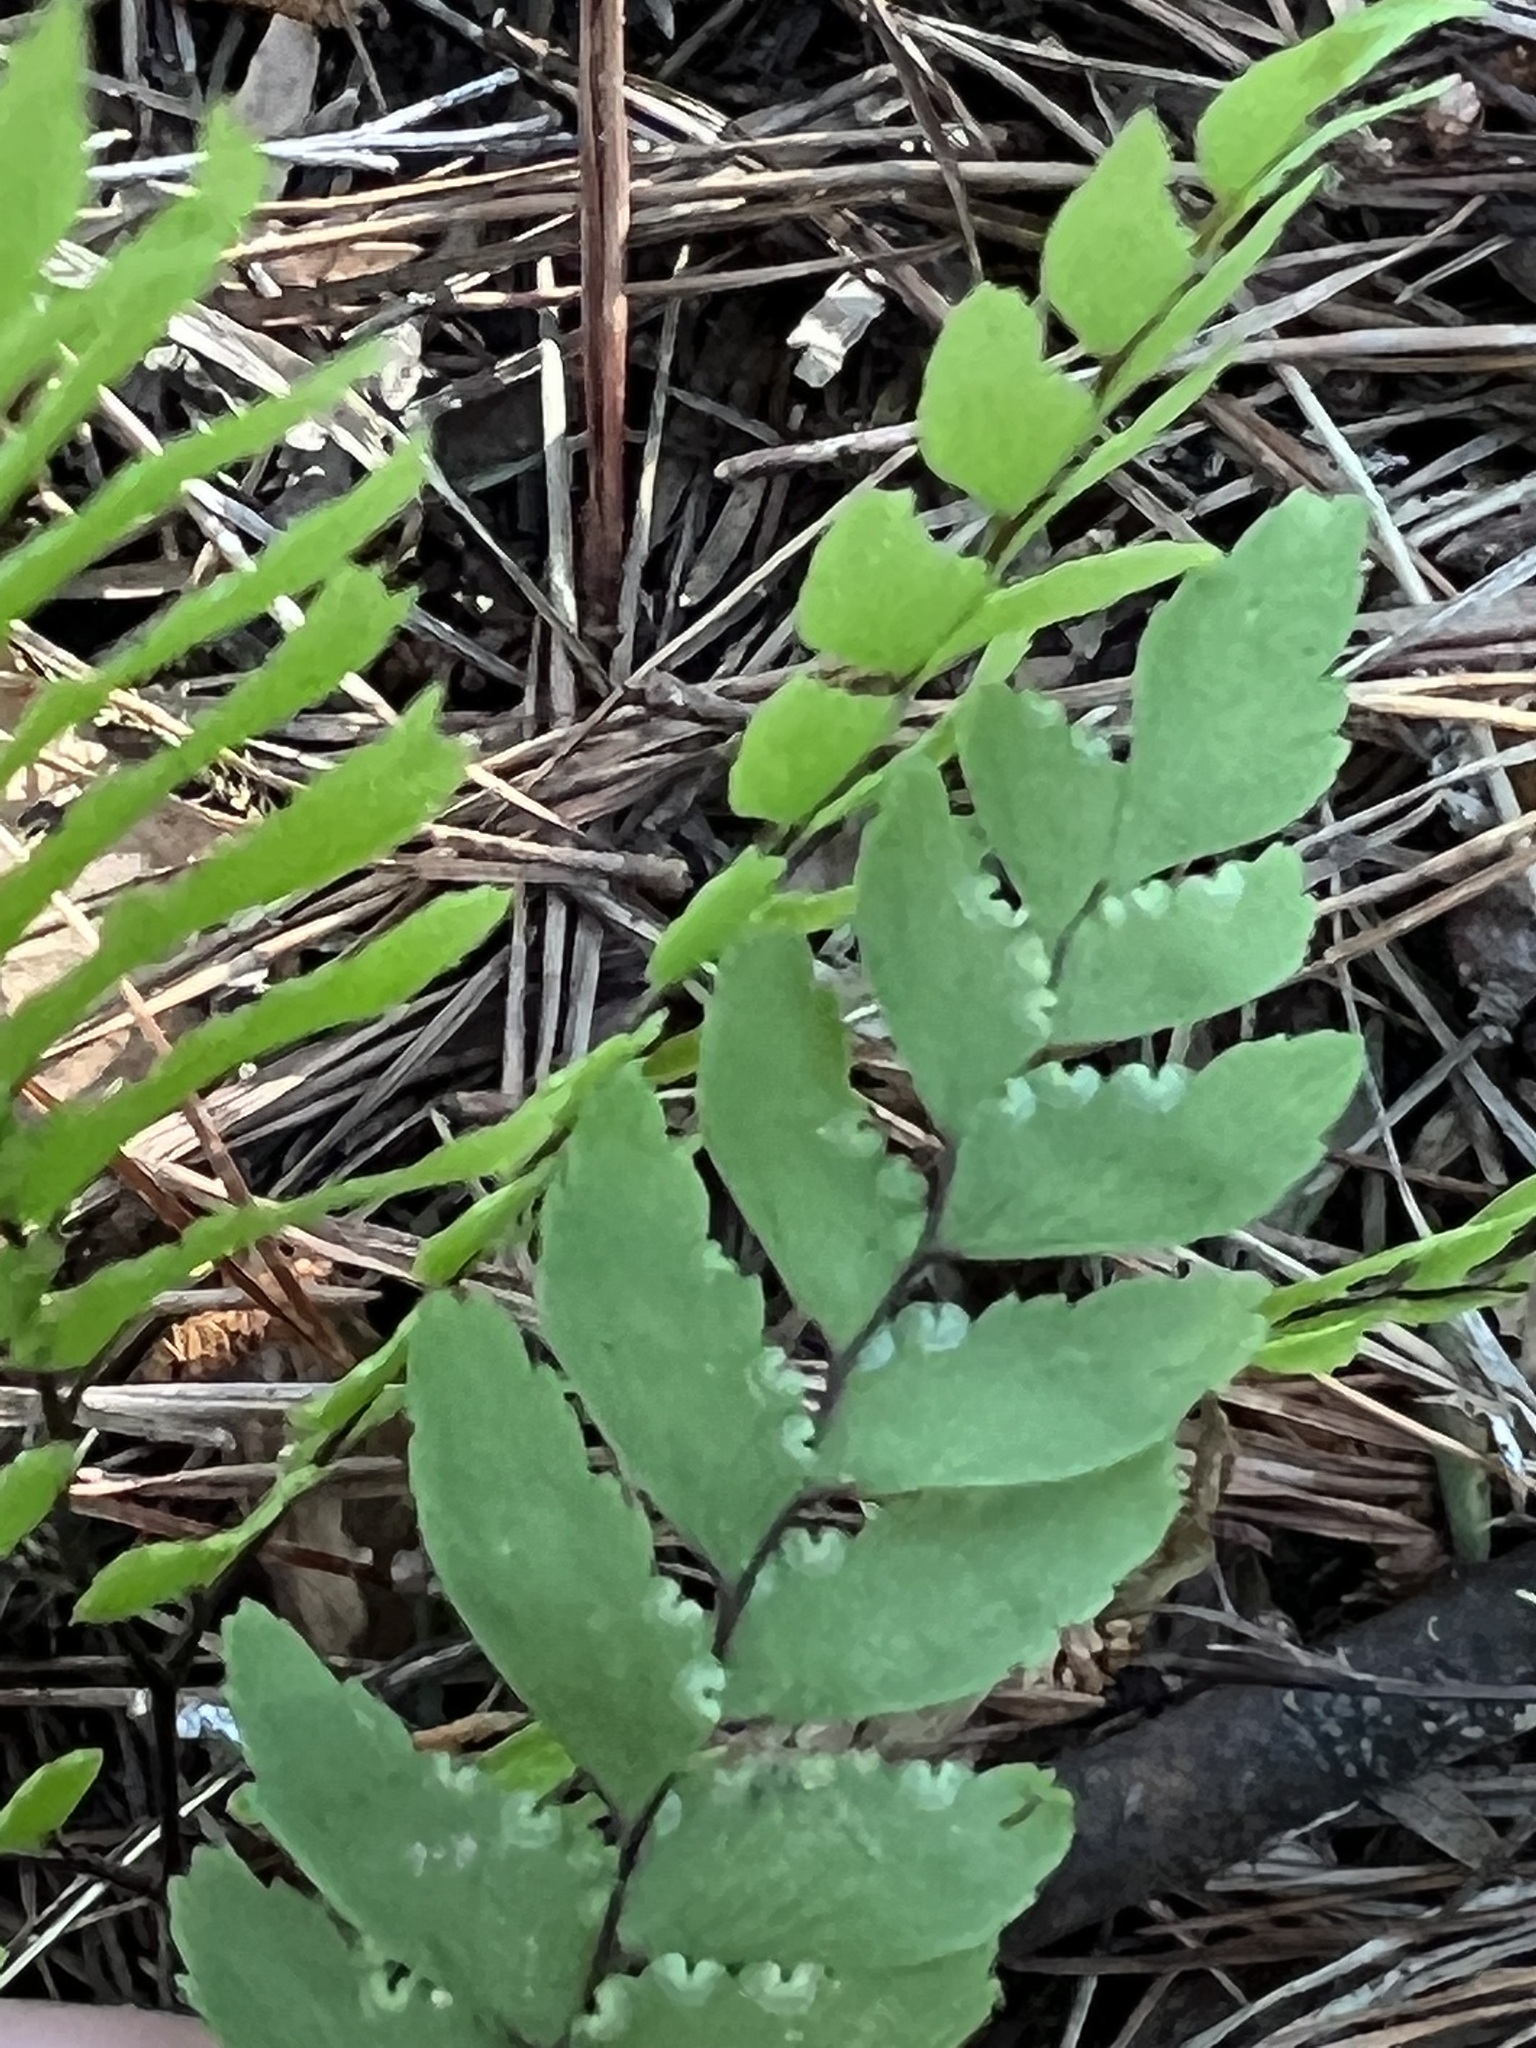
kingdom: Plantae
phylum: Tracheophyta
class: Polypodiopsida
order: Polypodiales
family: Pteridaceae
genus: Adiantum
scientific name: Adiantum fulvum
